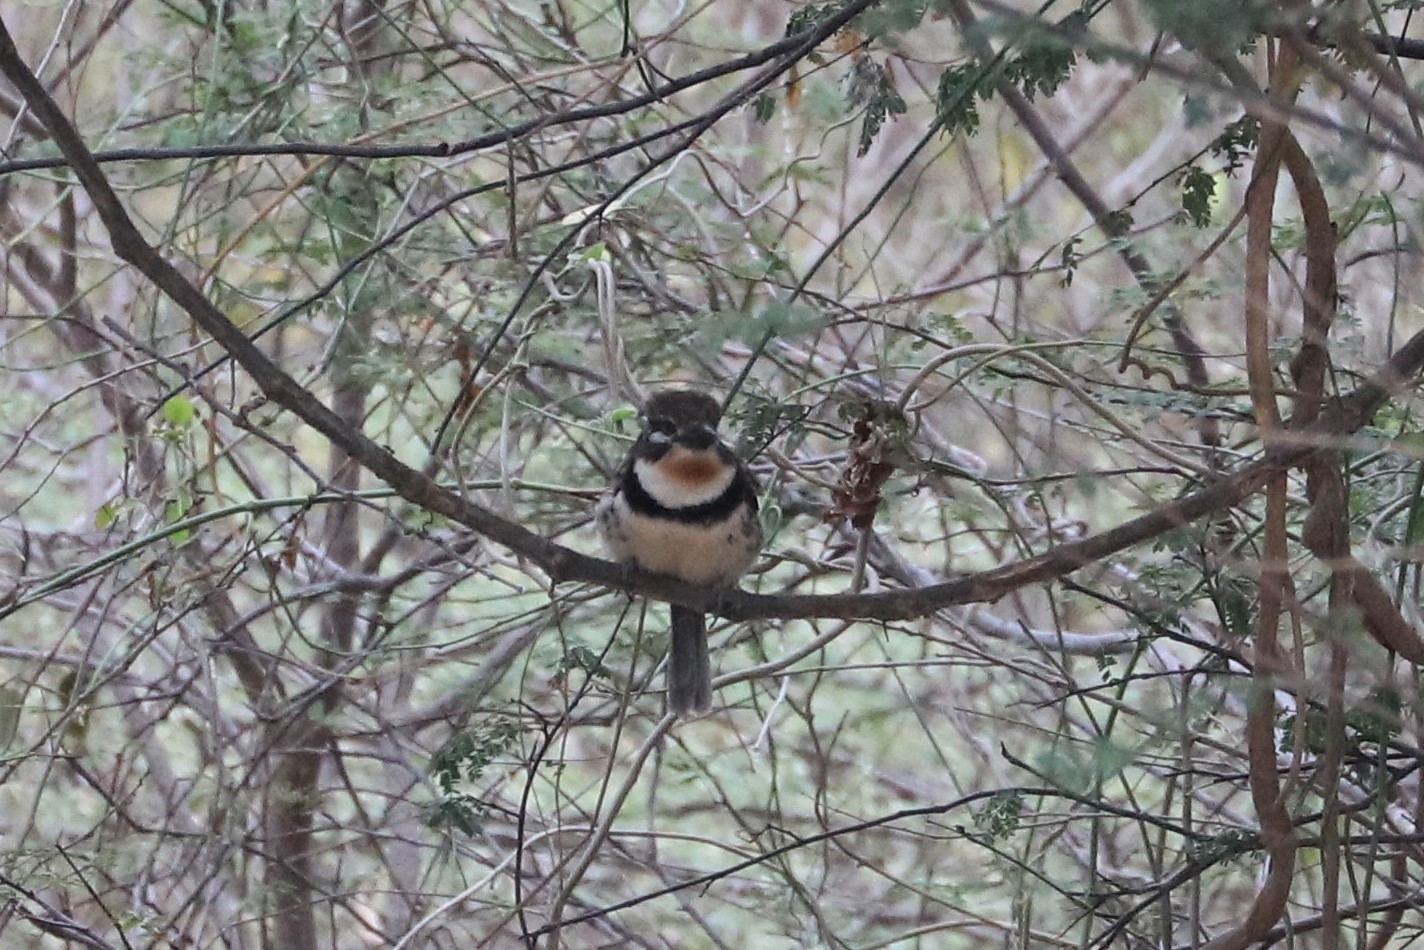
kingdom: Animalia
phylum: Chordata
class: Aves
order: Piciformes
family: Bucconidae
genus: Hypnelus
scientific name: Hypnelus ruficollis
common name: Russet-throated puffbird
